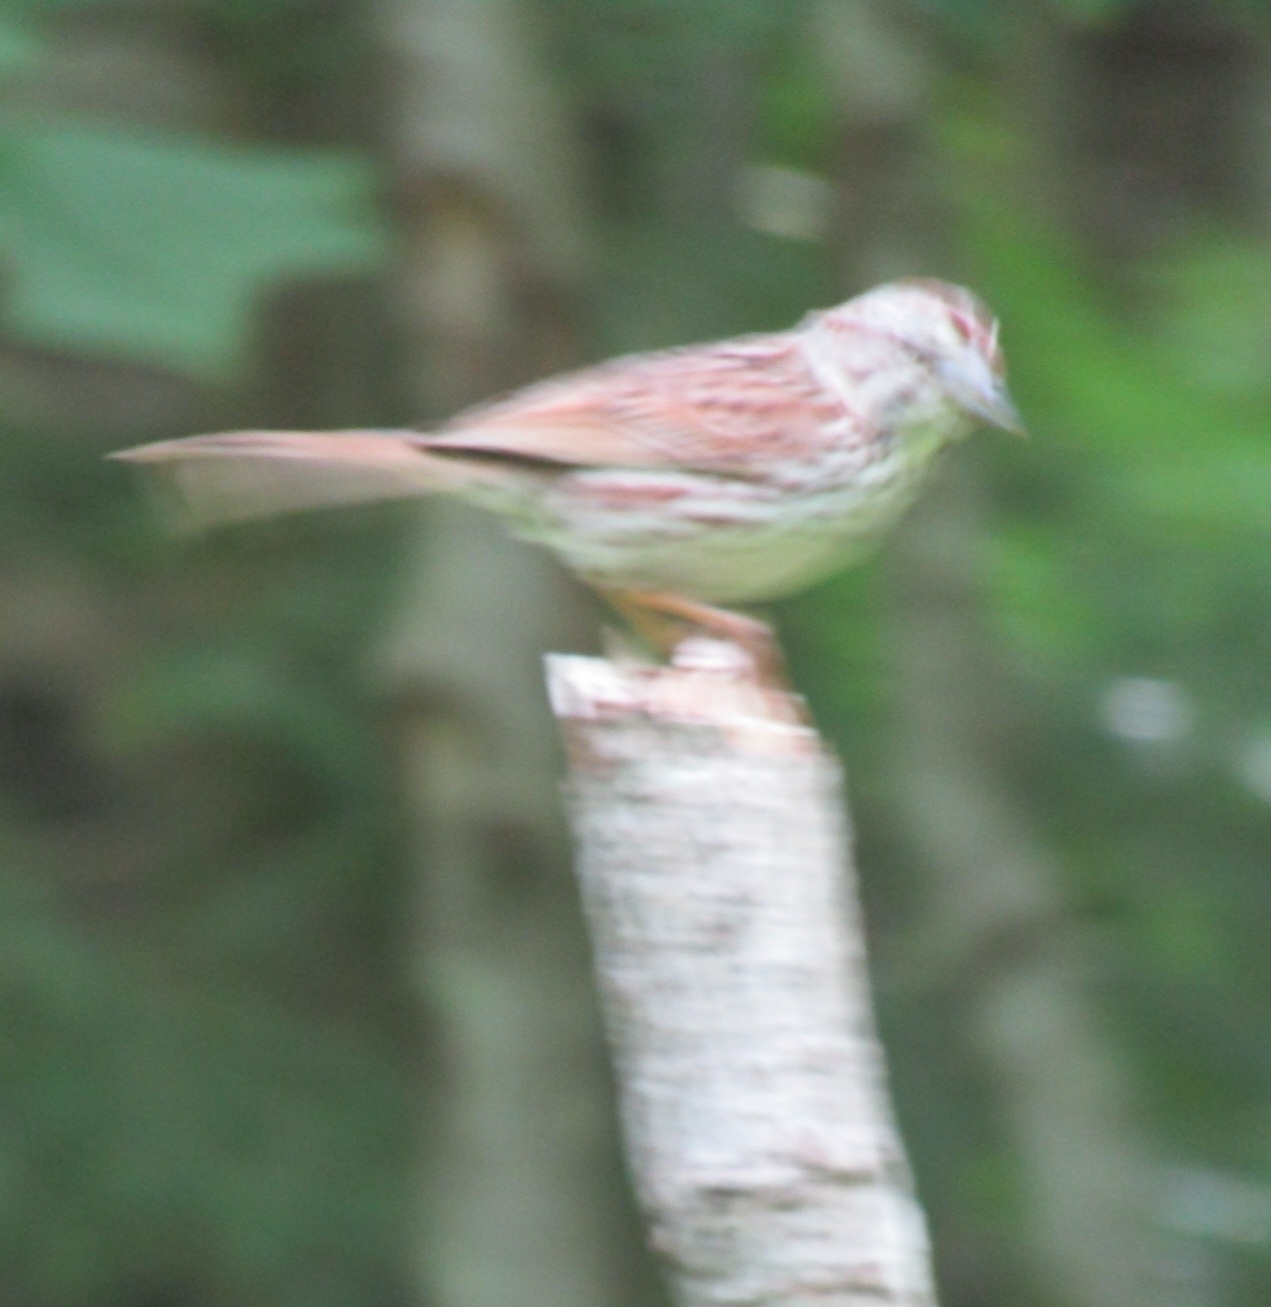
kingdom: Animalia
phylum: Chordata
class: Aves
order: Passeriformes
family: Passerellidae
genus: Melospiza
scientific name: Melospiza melodia
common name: Song sparrow
